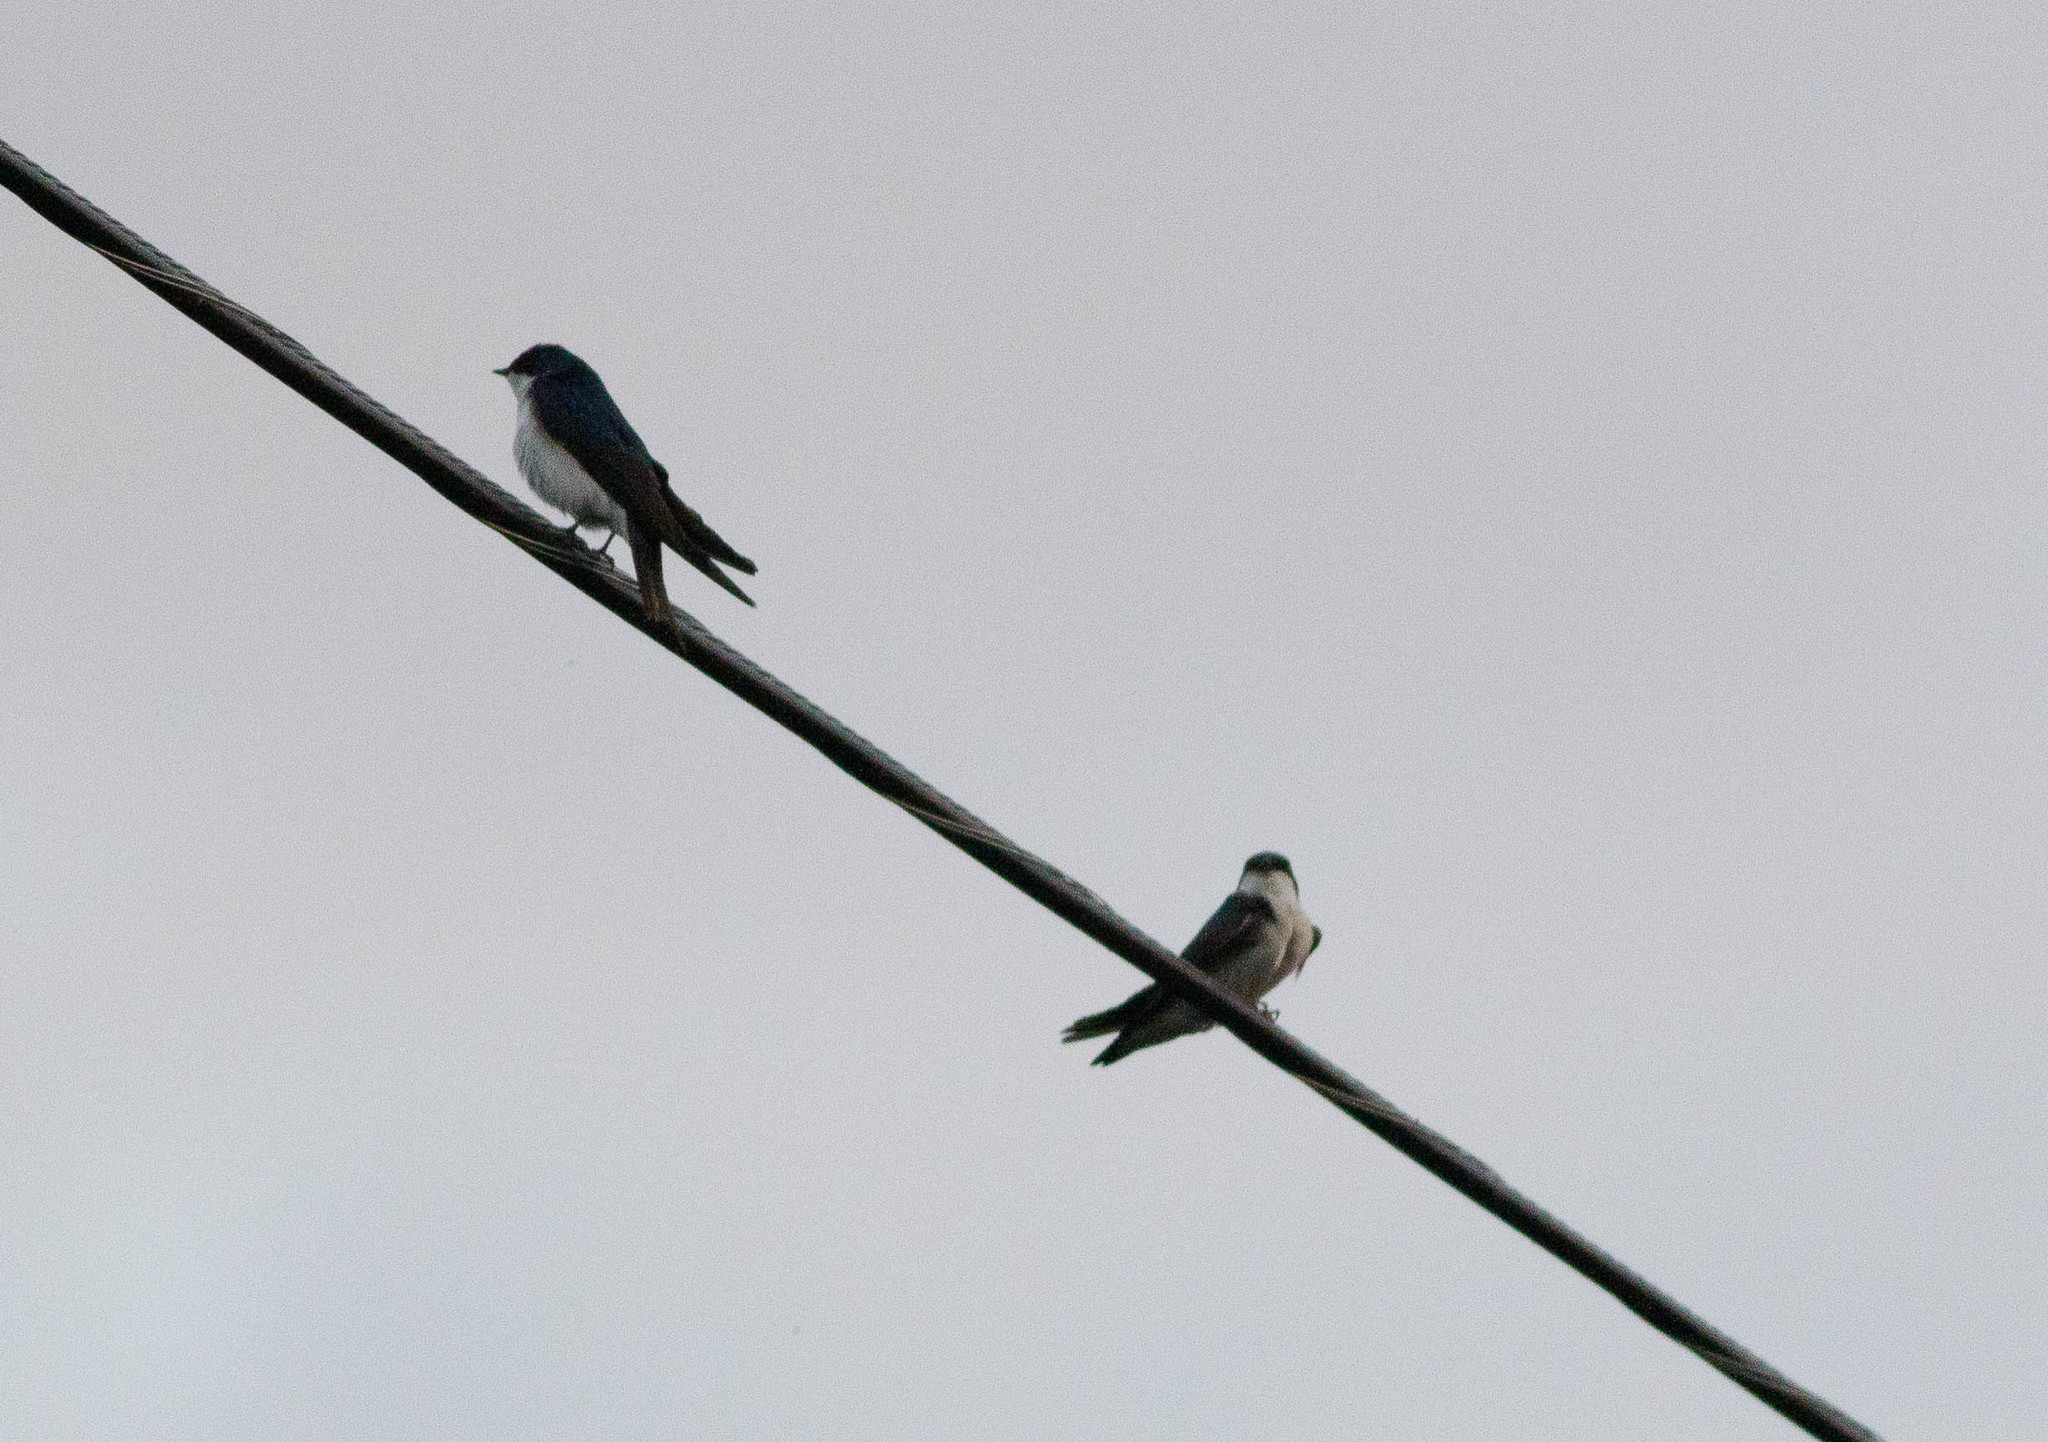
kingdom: Animalia
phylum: Chordata
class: Aves
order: Passeriformes
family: Hirundinidae
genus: Tachycineta
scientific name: Tachycineta bicolor
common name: Tree swallow
